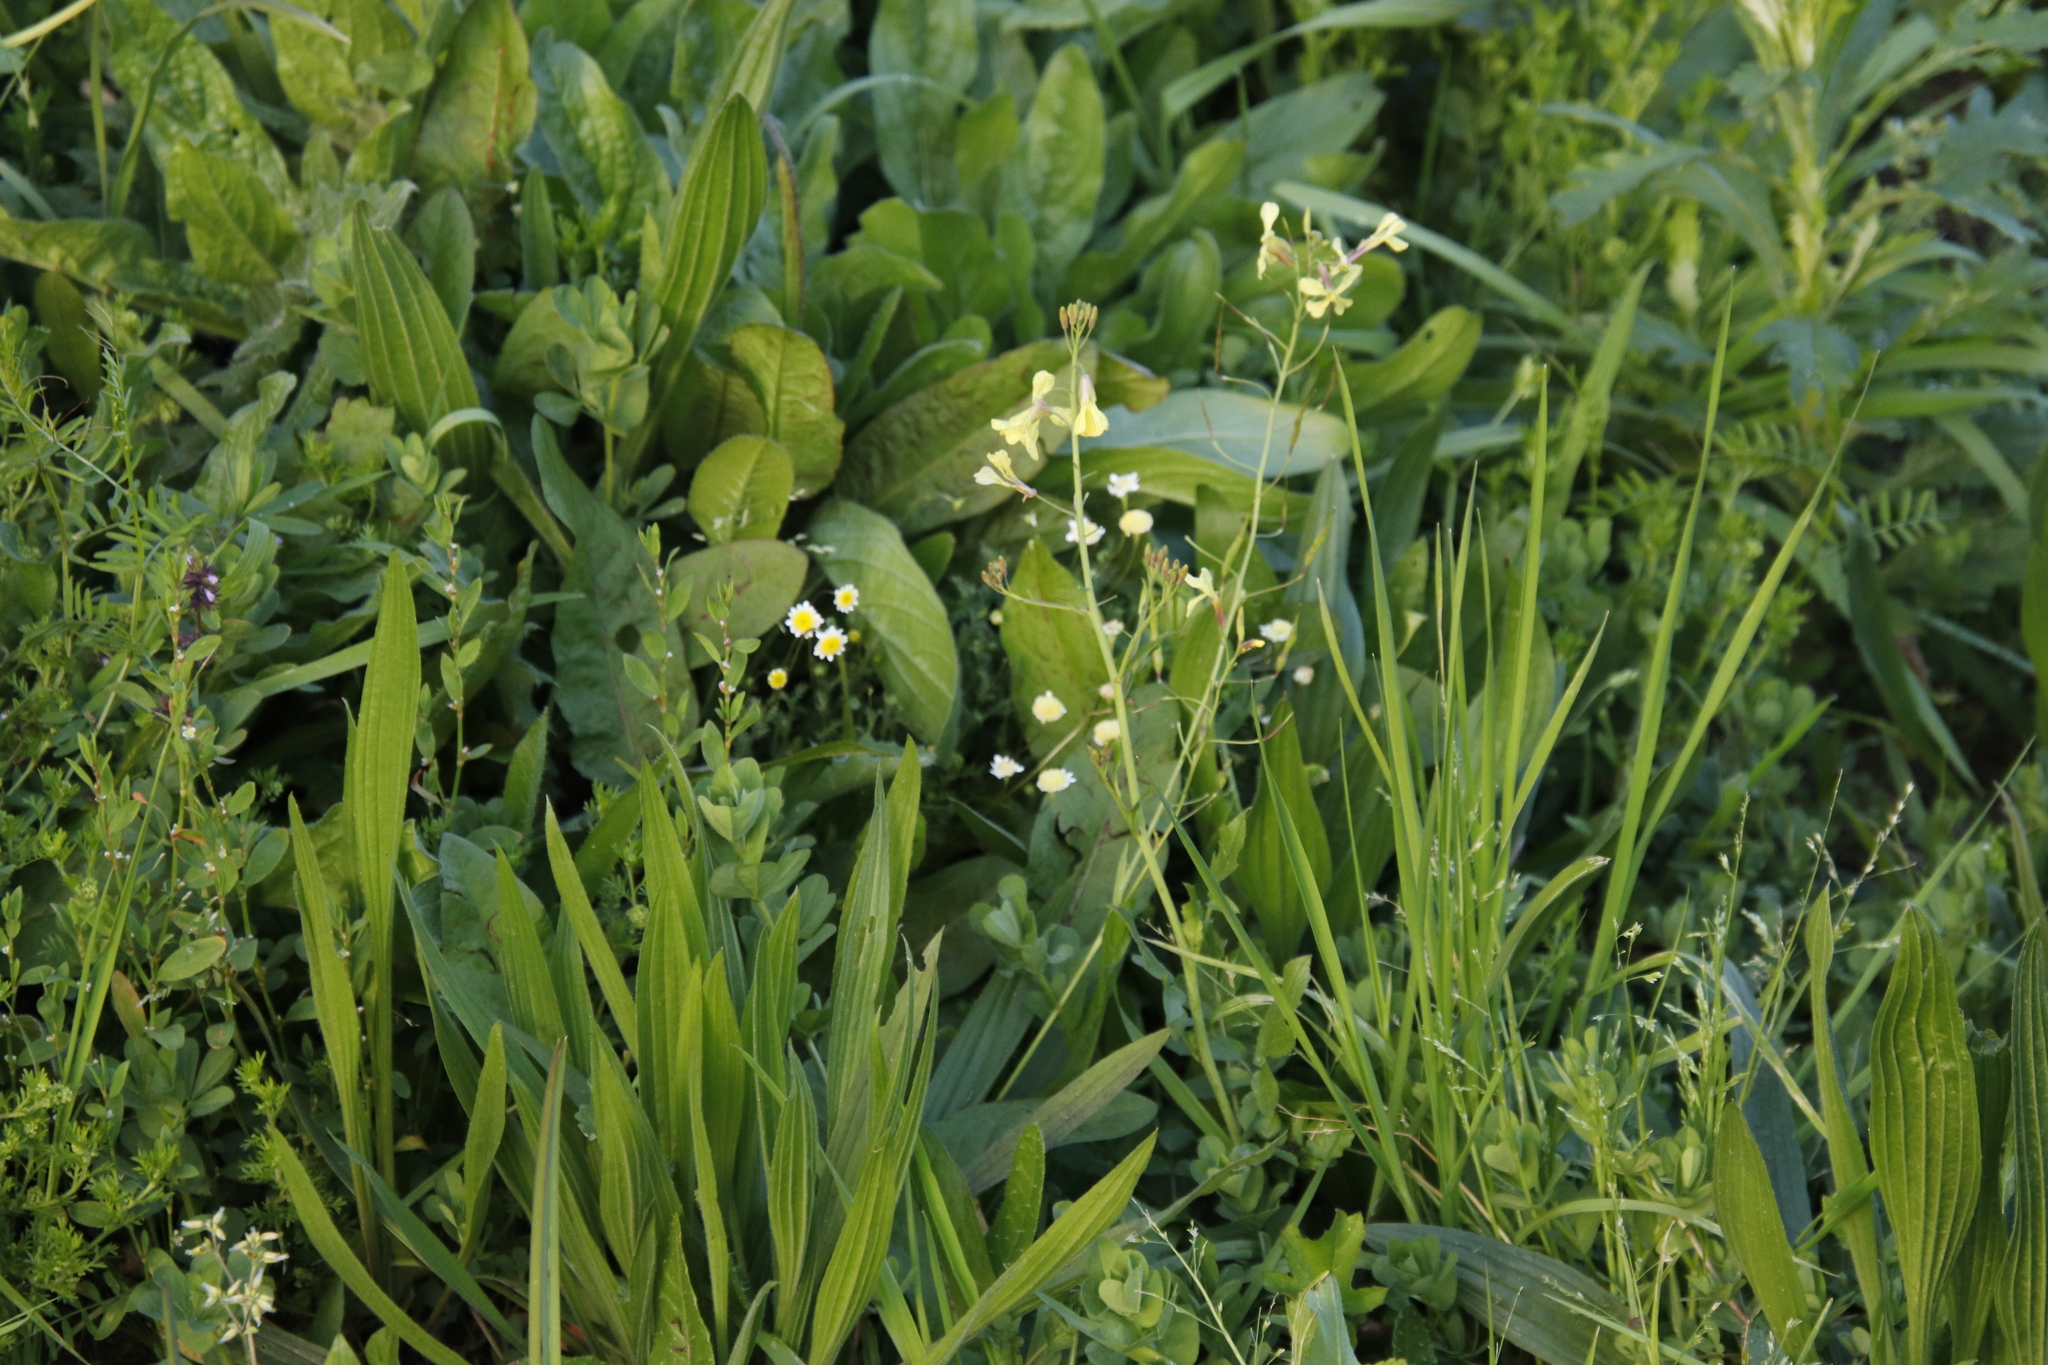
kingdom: Plantae
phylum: Tracheophyta
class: Magnoliopsida
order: Brassicales
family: Brassicaceae
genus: Raphanus
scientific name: Raphanus raphanistrum
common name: Wild radish
